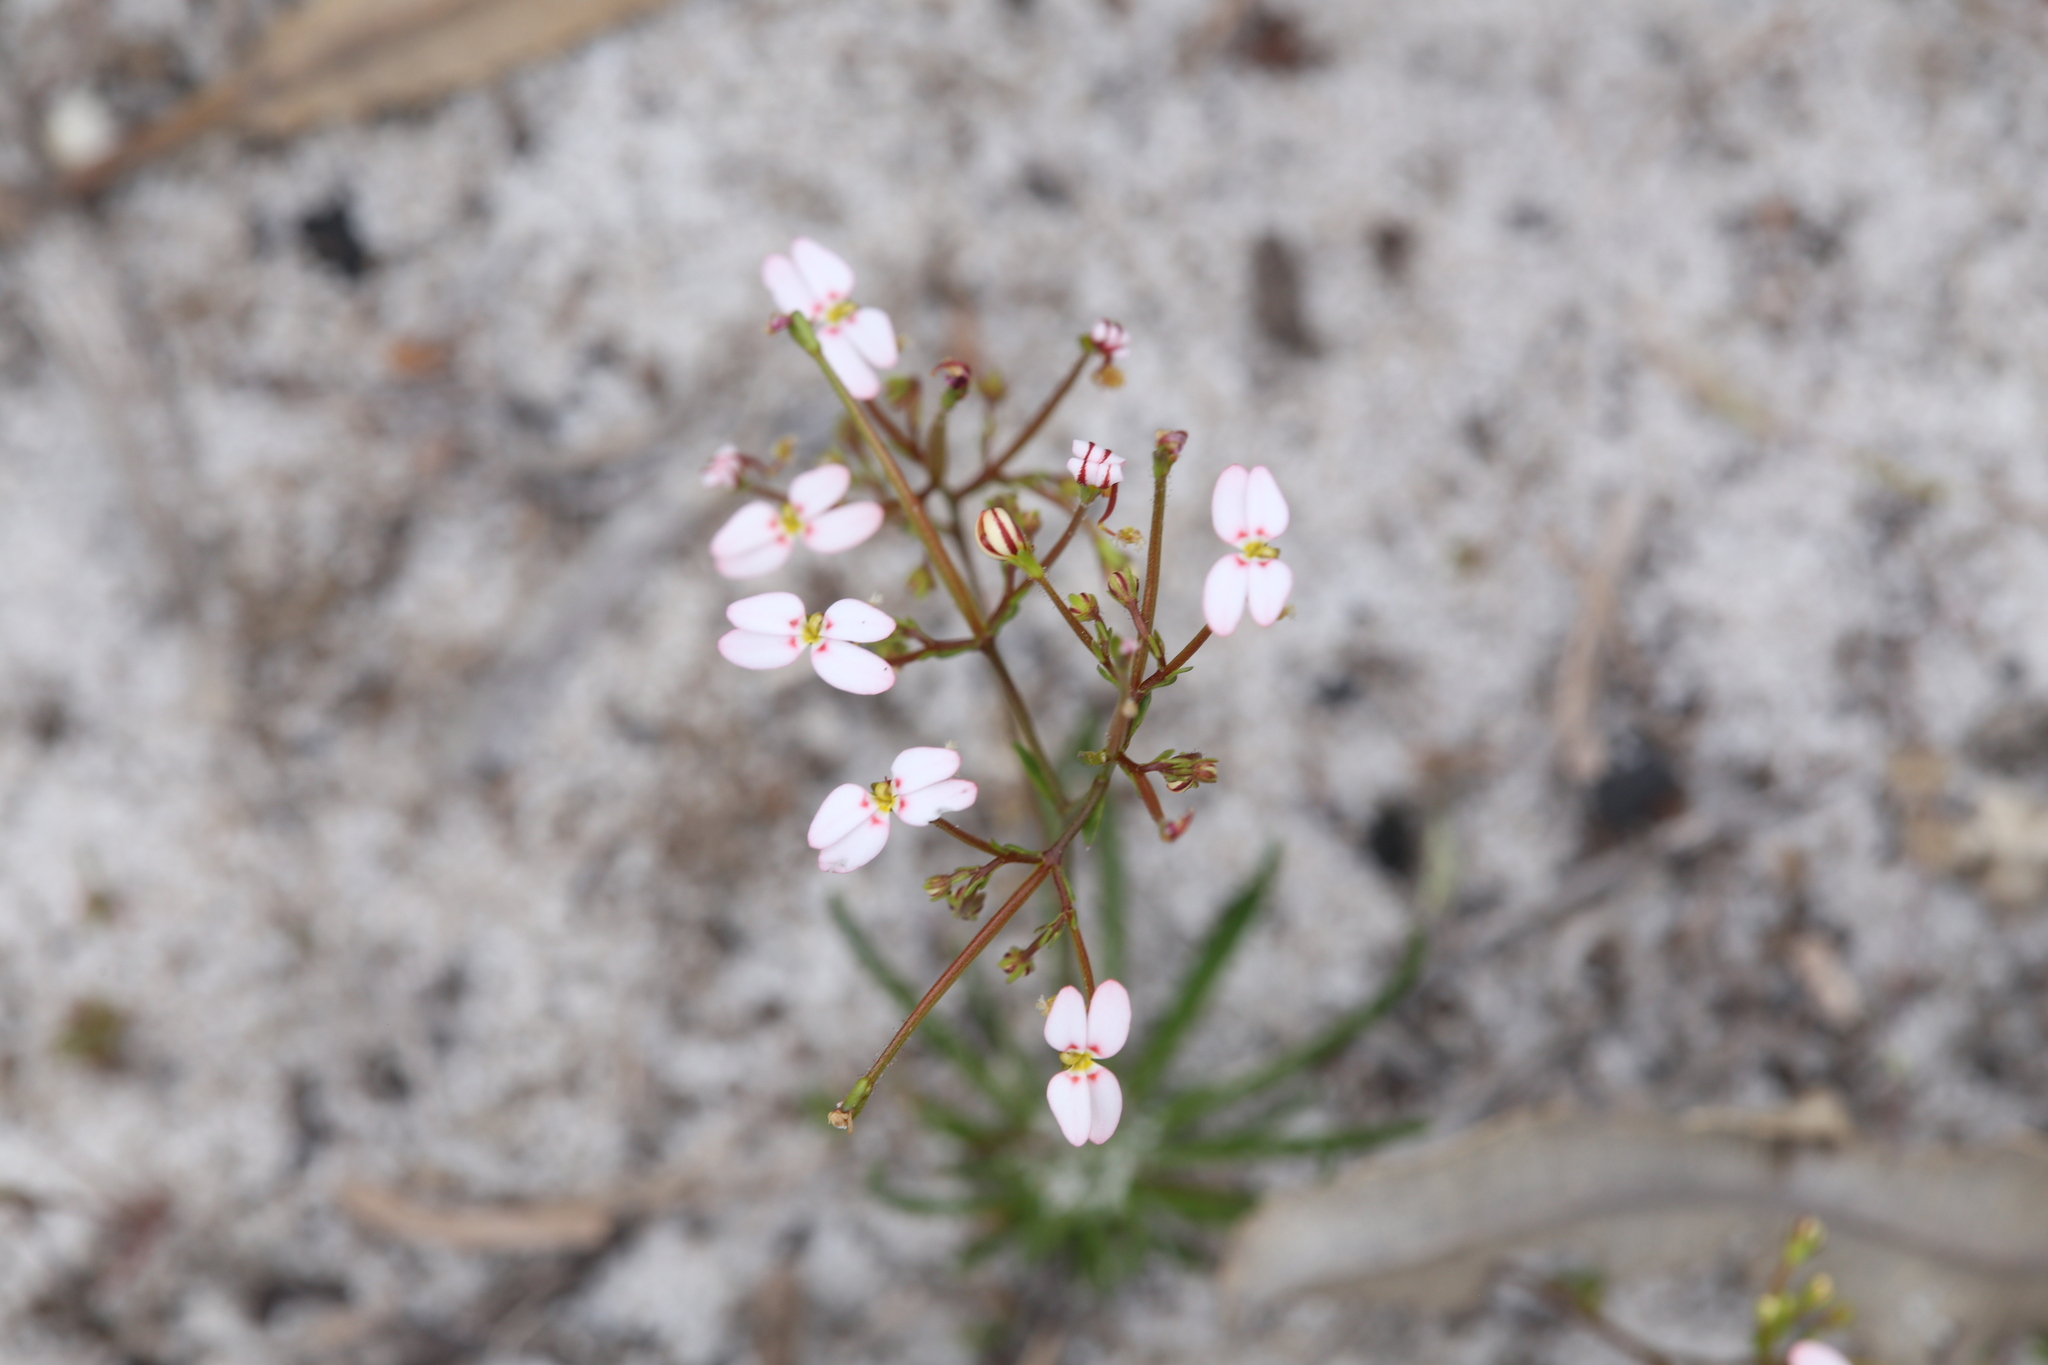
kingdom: Plantae
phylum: Tracheophyta
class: Magnoliopsida
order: Asterales
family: Stylidiaceae
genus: Stylidium
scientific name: Stylidium rigidulum
